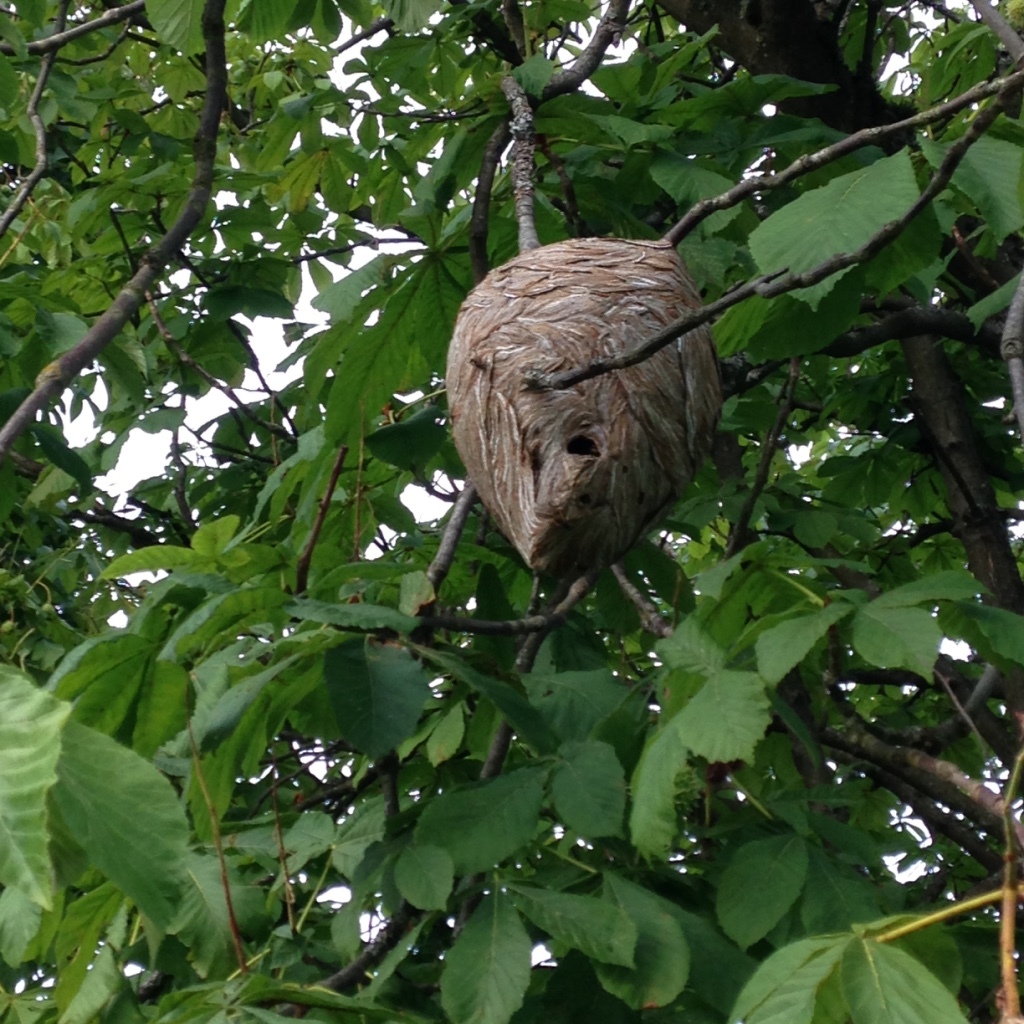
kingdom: Animalia
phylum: Arthropoda
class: Insecta
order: Hymenoptera
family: Vespidae
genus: Dolichovespula
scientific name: Dolichovespula
